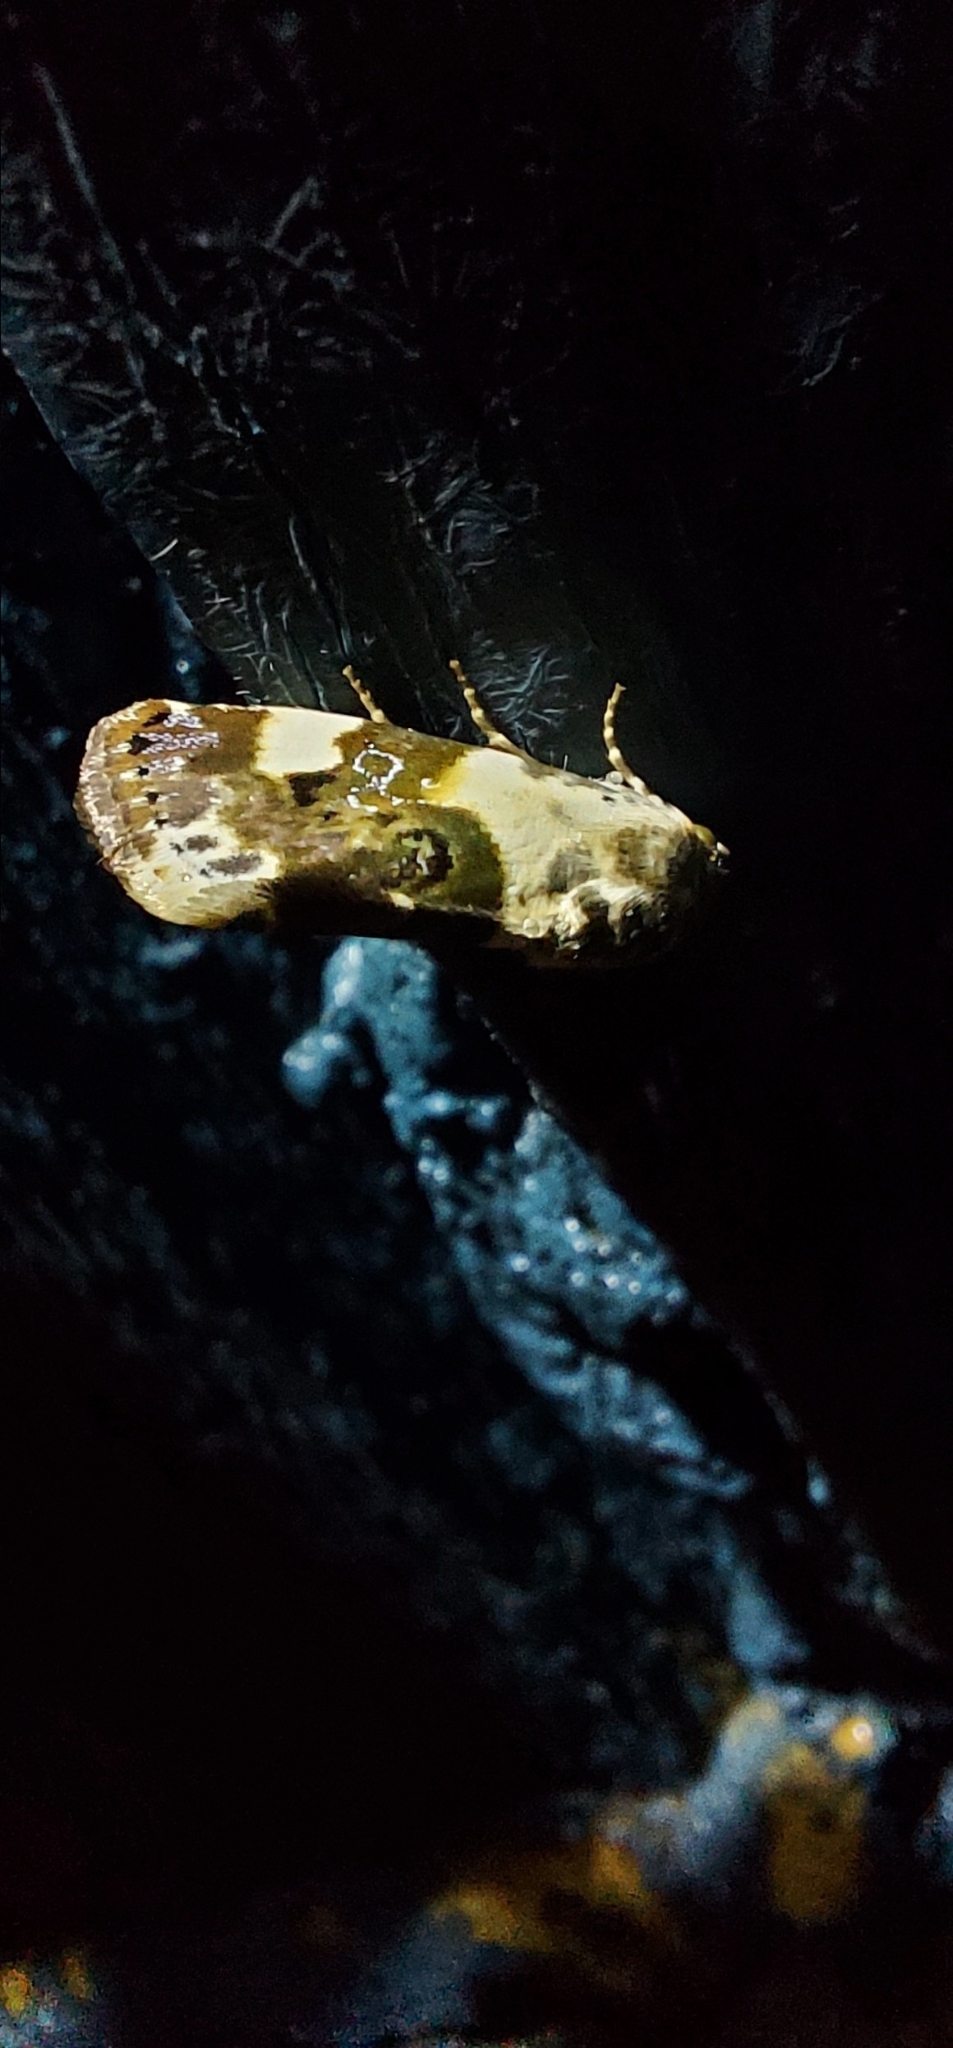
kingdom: Animalia
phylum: Arthropoda
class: Insecta
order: Lepidoptera
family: Noctuidae
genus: Acontia
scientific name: Acontia lucida
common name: Pale shoulder
